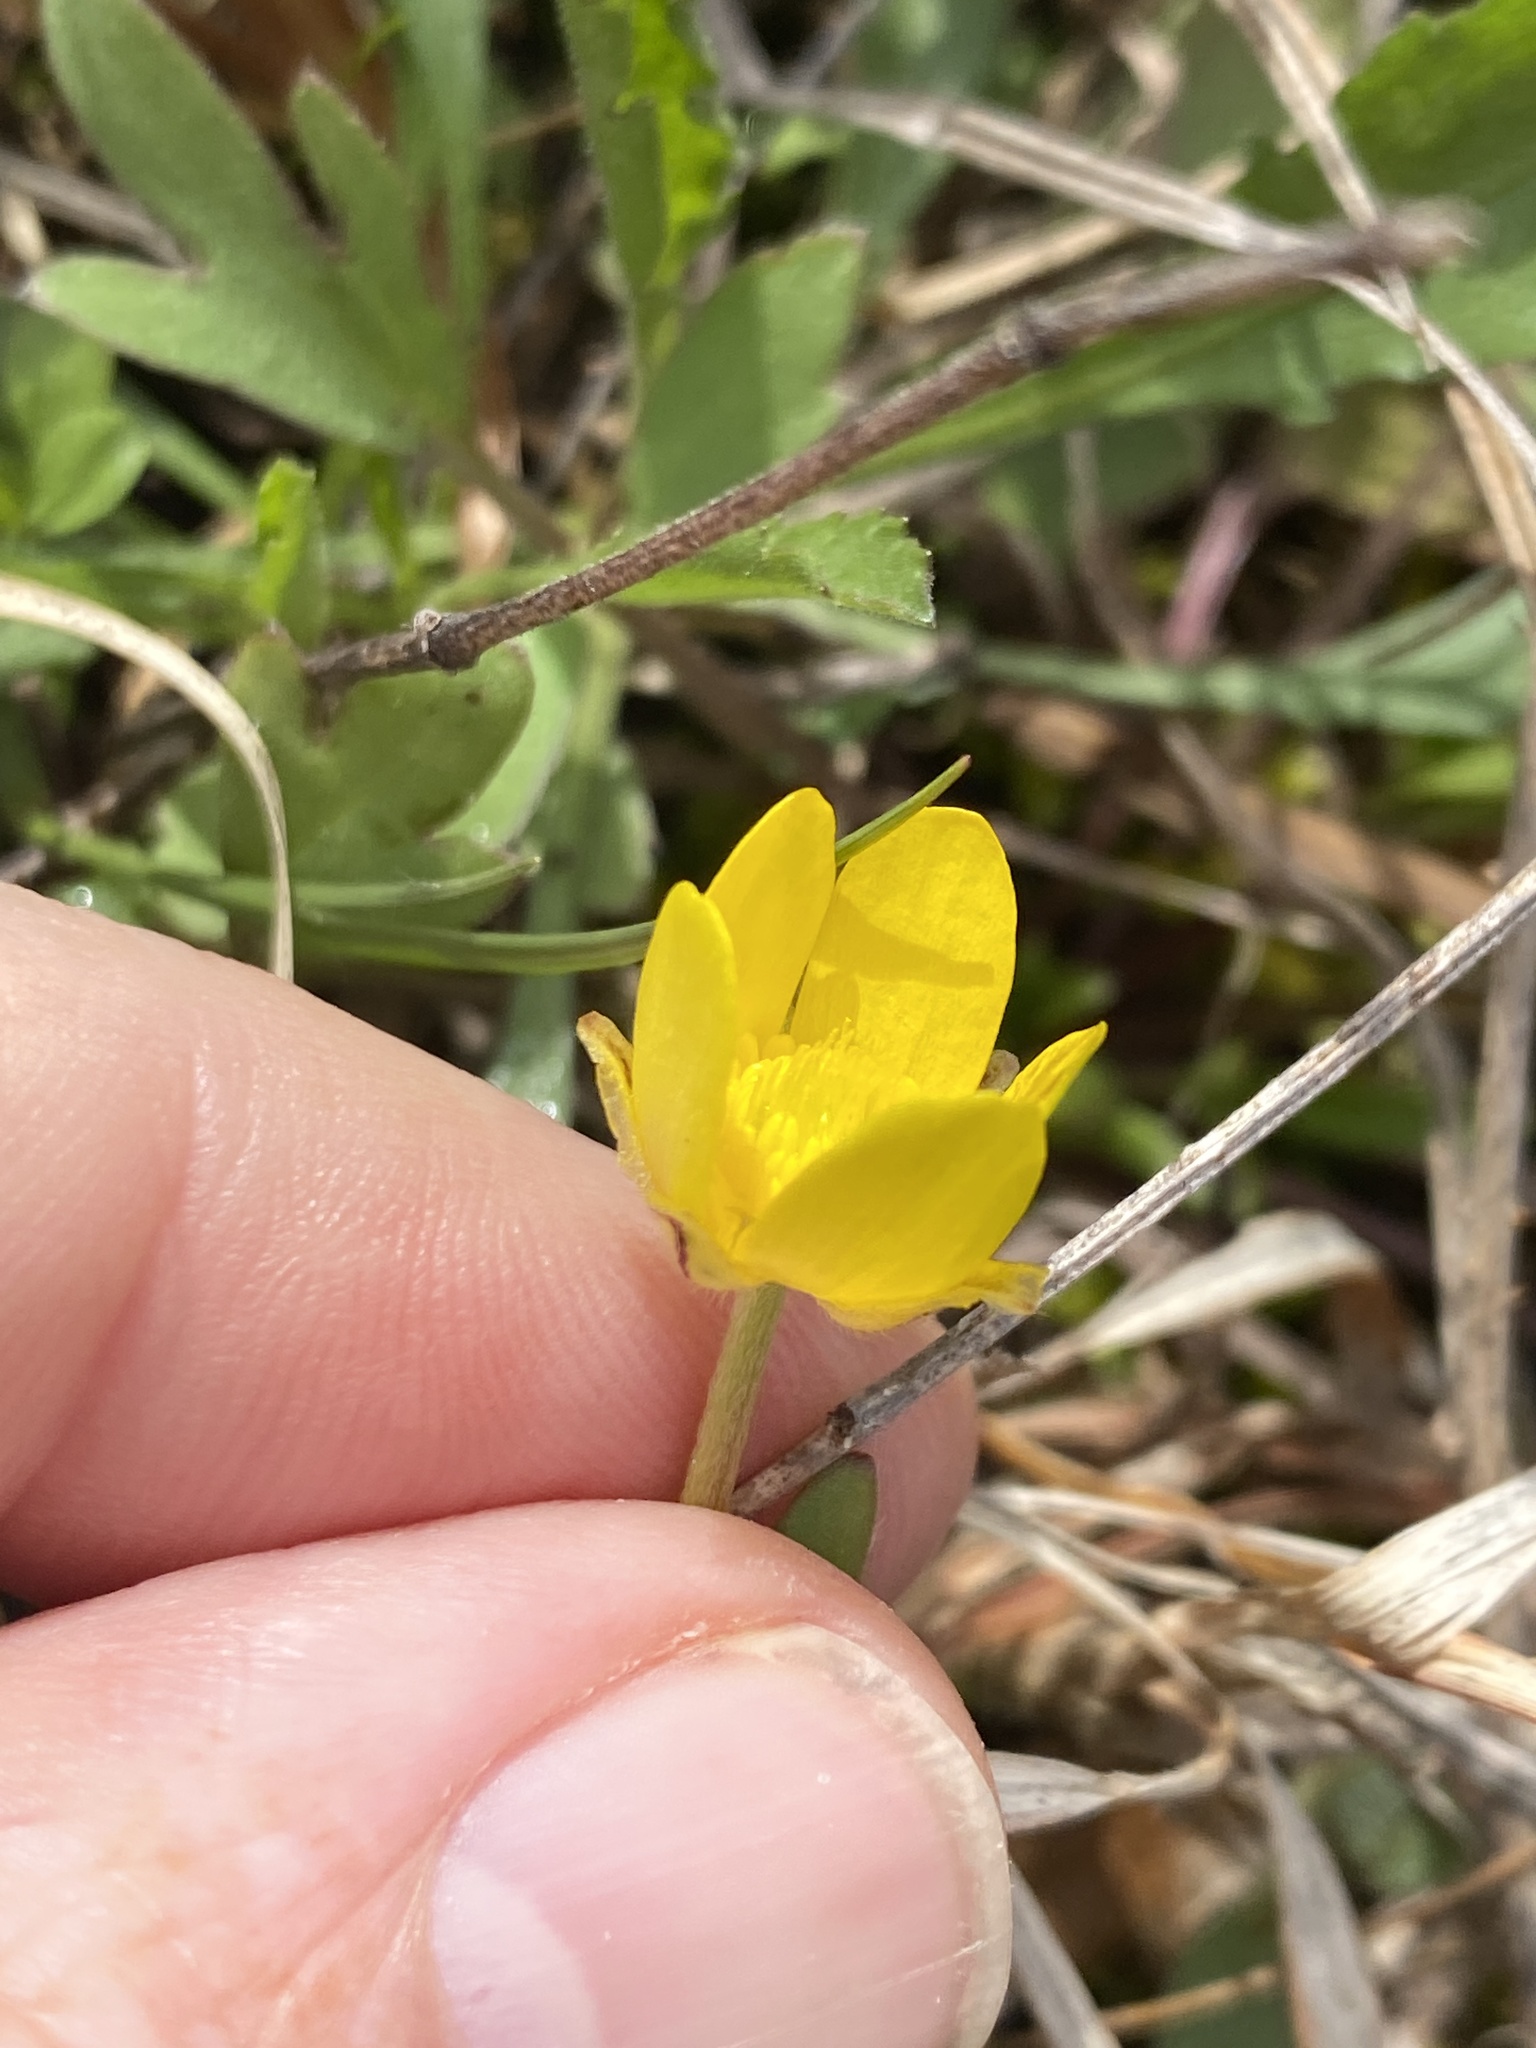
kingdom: Plantae
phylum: Tracheophyta
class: Magnoliopsida
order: Ranunculales
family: Ranunculaceae
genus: Ranunculus
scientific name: Ranunculus fascicularis
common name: Early buttercup
